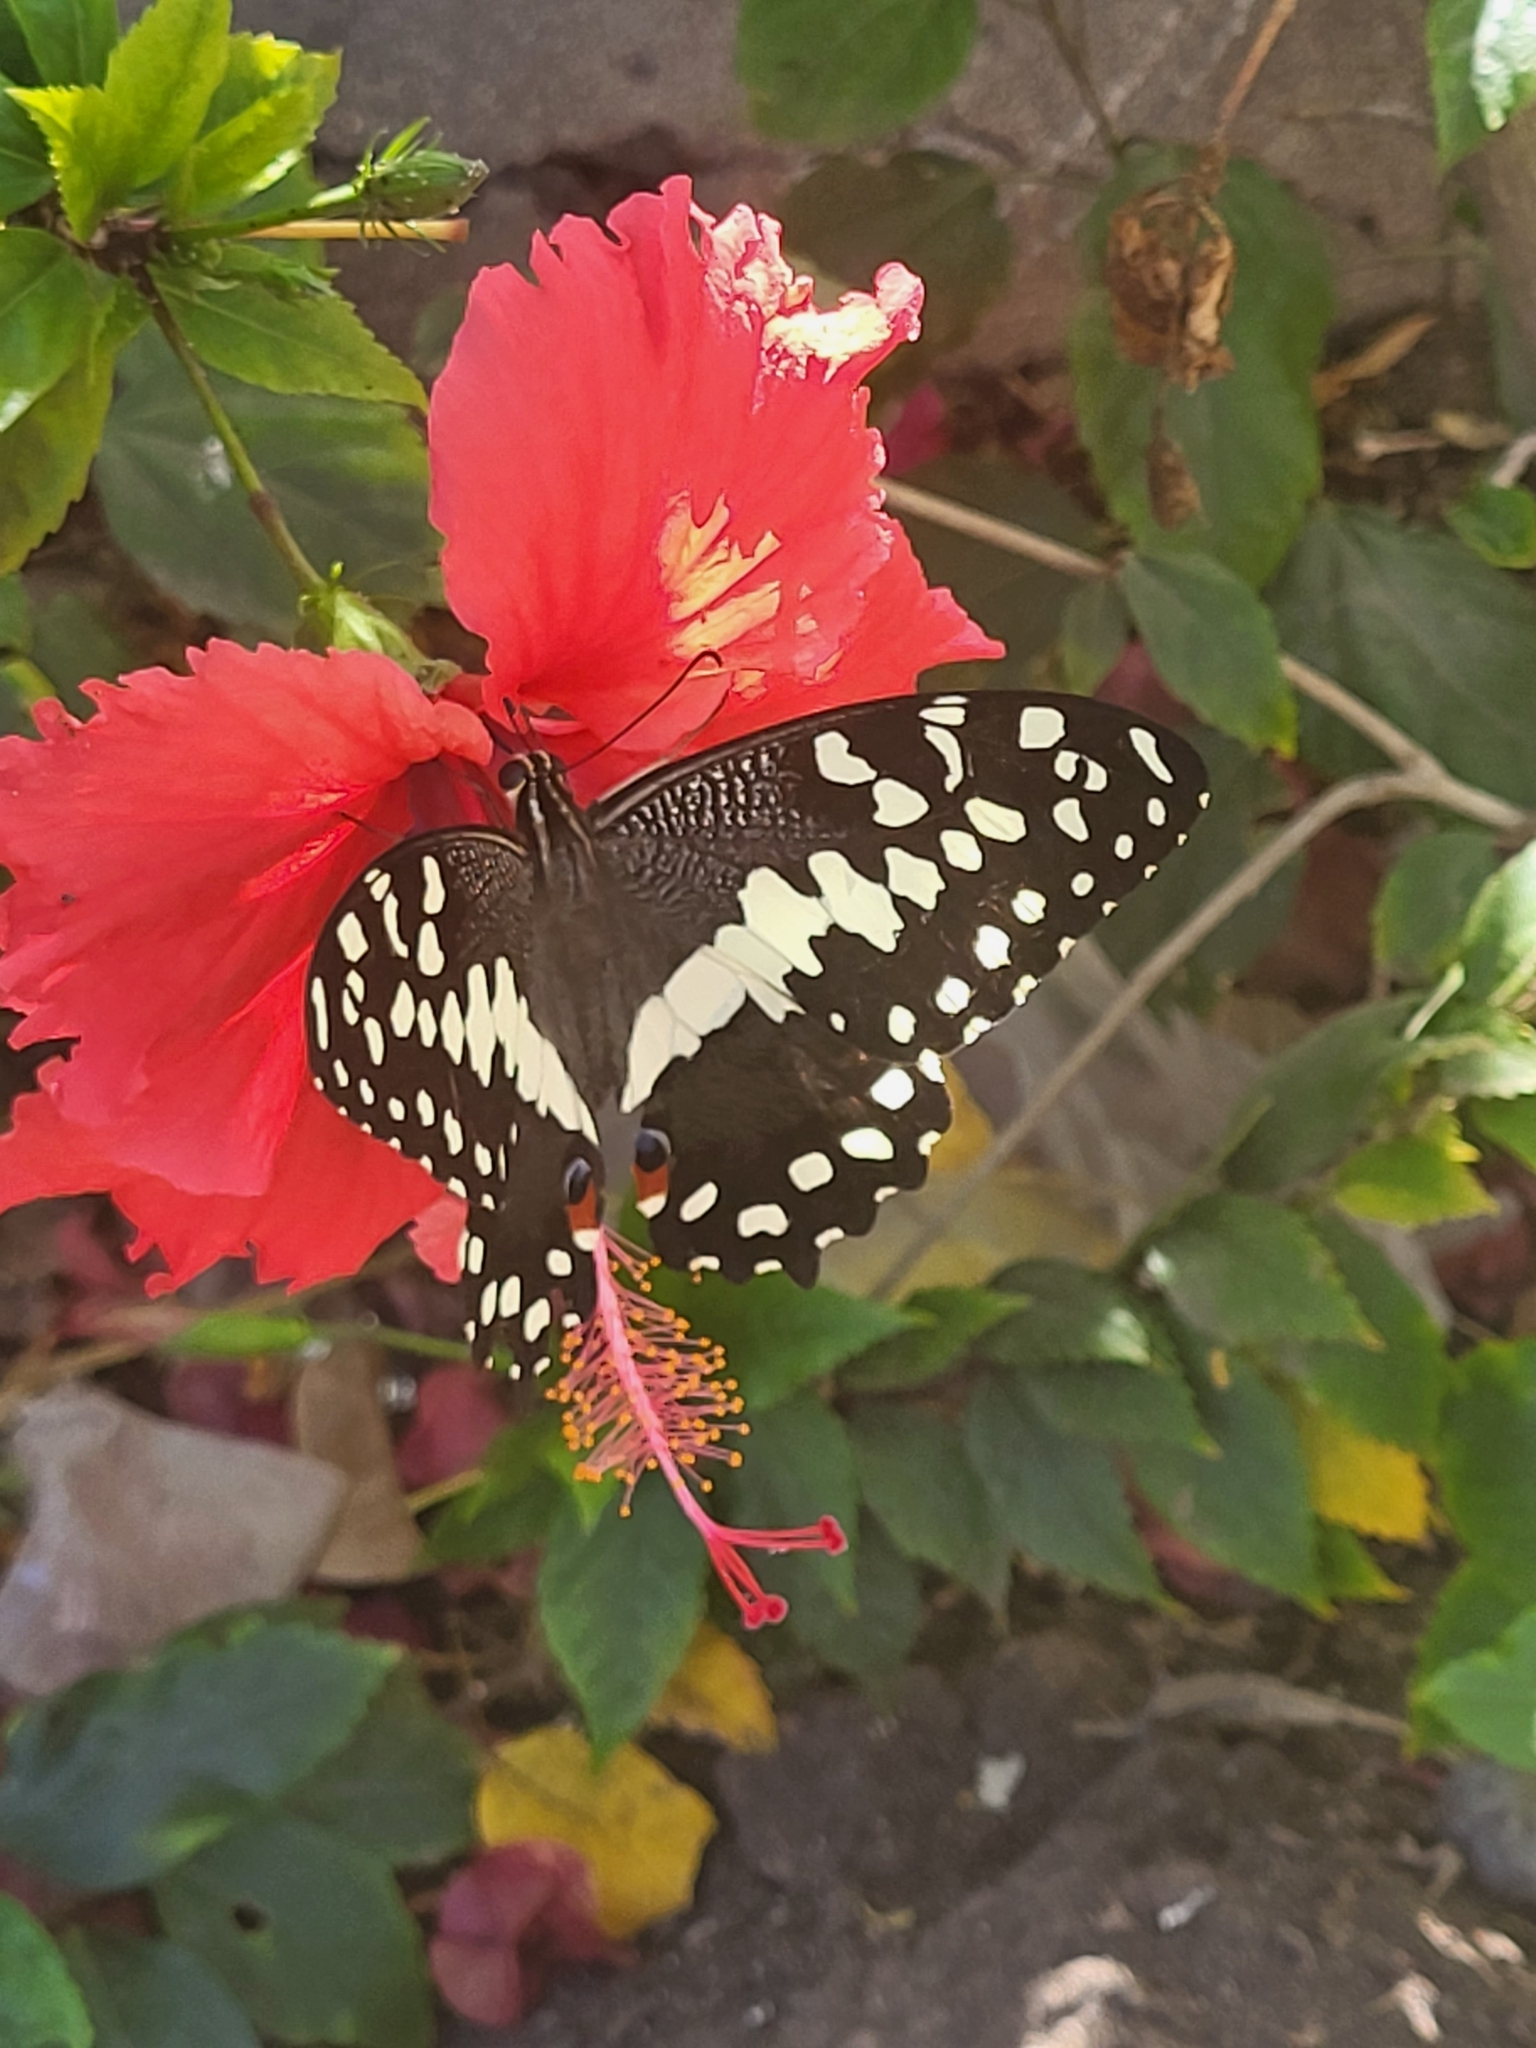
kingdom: Animalia
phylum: Arthropoda
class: Insecta
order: Lepidoptera
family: Papilionidae
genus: Papilio
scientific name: Papilio demodocus
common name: Christmas butterfly
